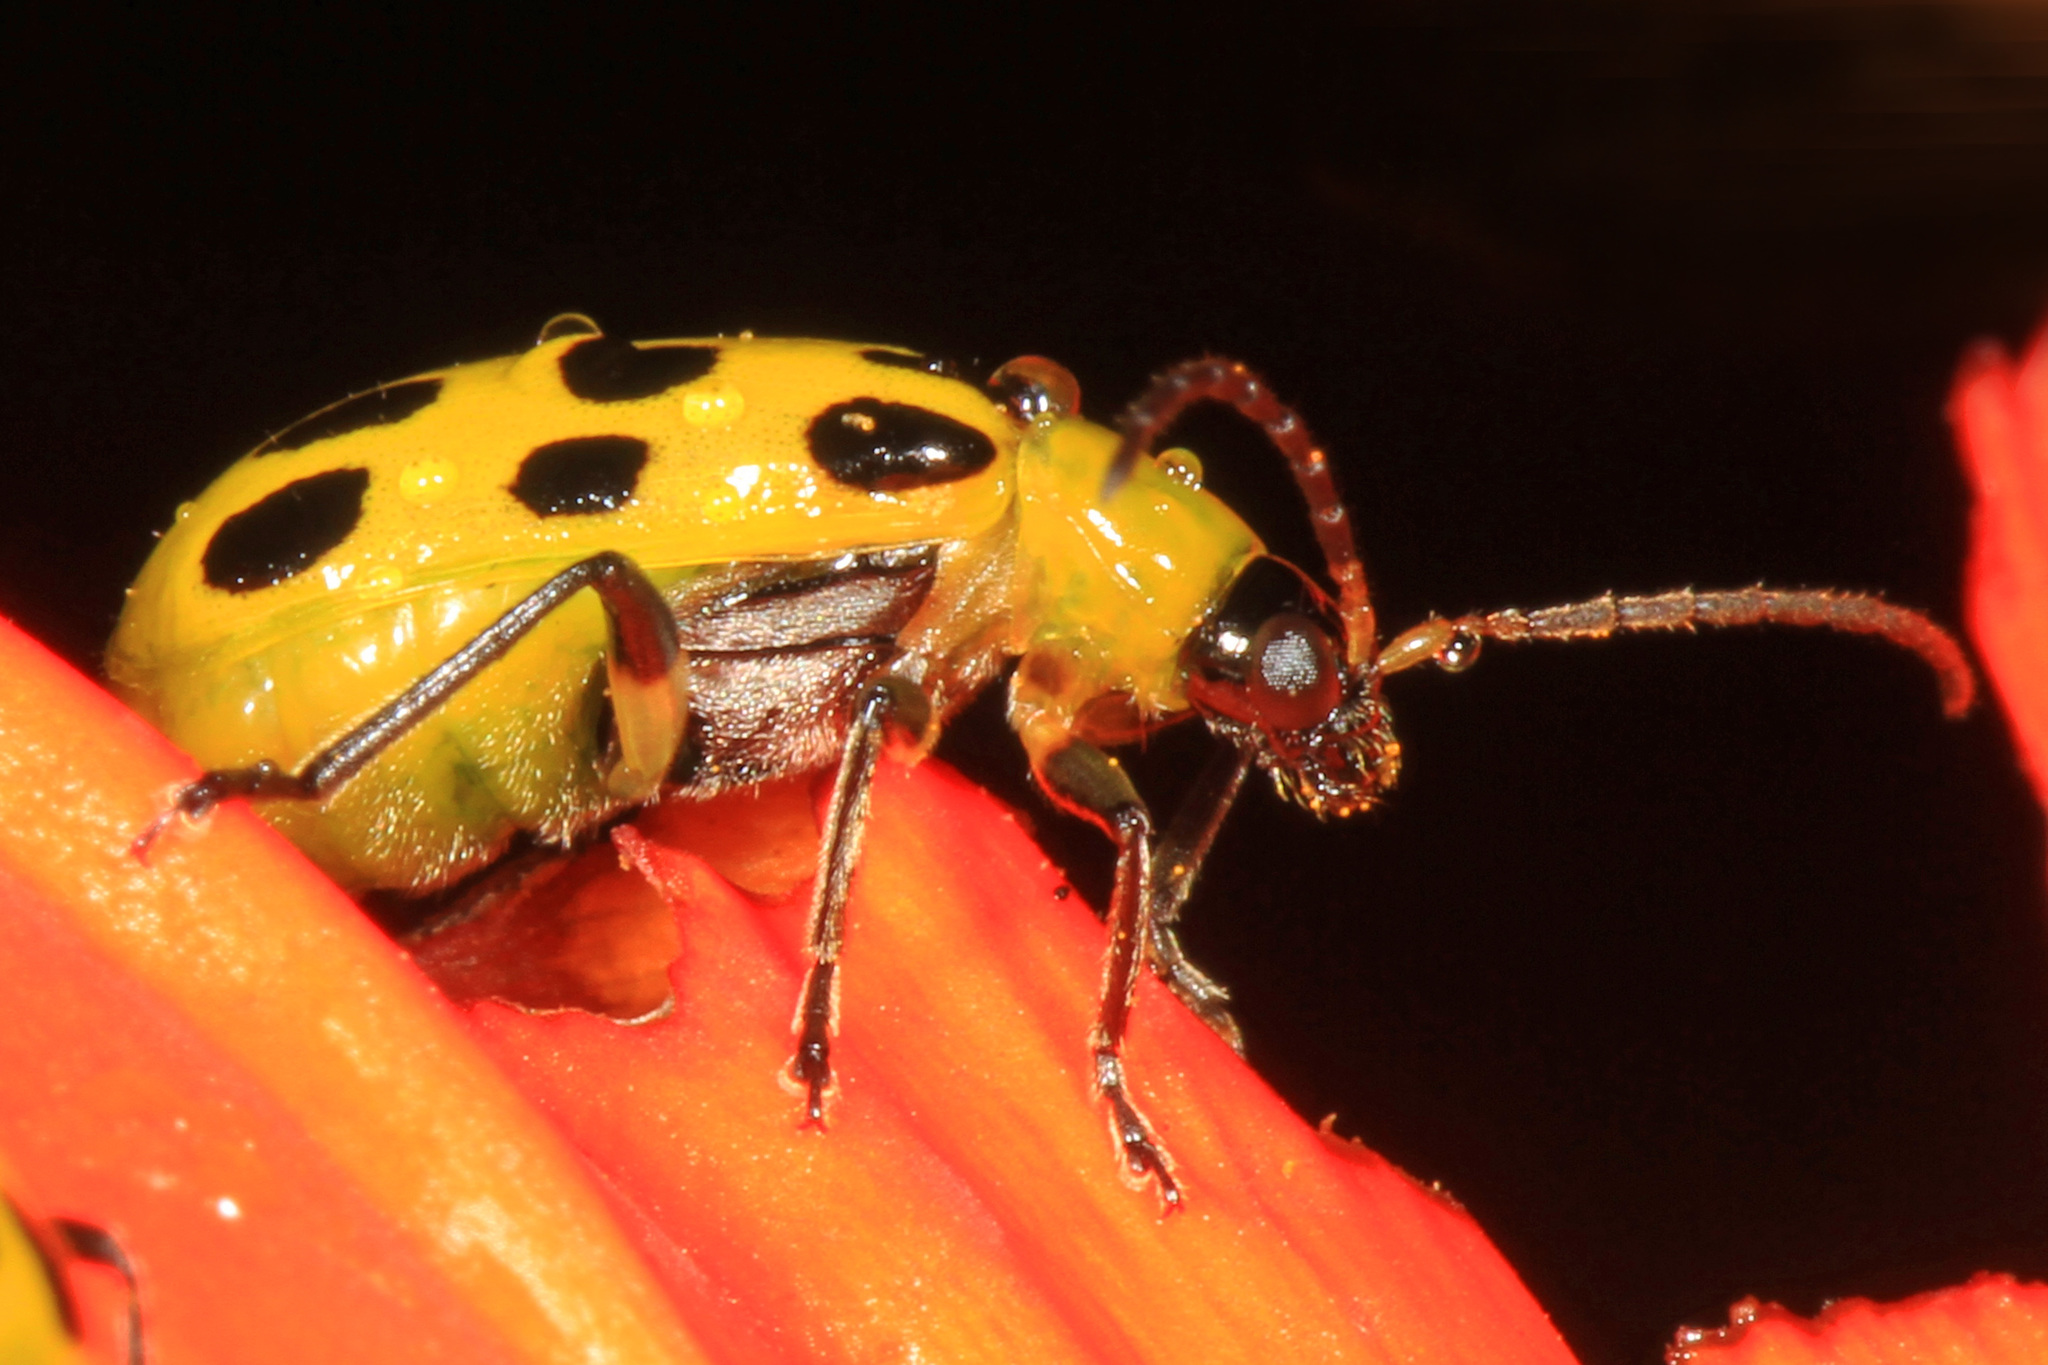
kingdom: Animalia
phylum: Arthropoda
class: Insecta
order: Coleoptera
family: Chrysomelidae
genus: Diabrotica
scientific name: Diabrotica undecimpunctata
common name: Spotted cucumber beetle
